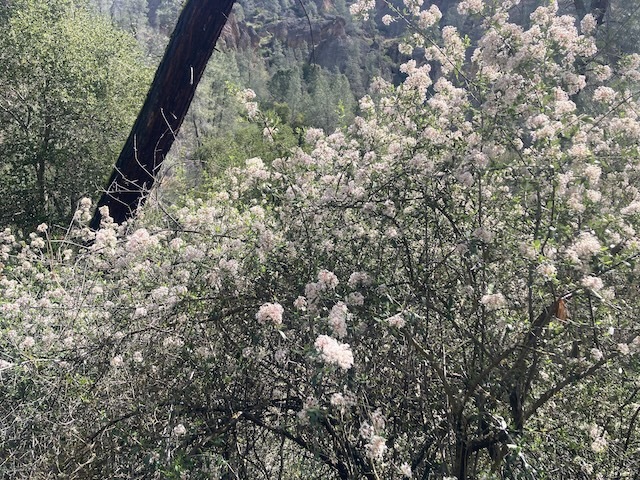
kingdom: Plantae
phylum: Tracheophyta
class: Magnoliopsida
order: Rosales
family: Rhamnaceae
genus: Ceanothus
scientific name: Ceanothus cuneatus
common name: Cuneate ceanothus
